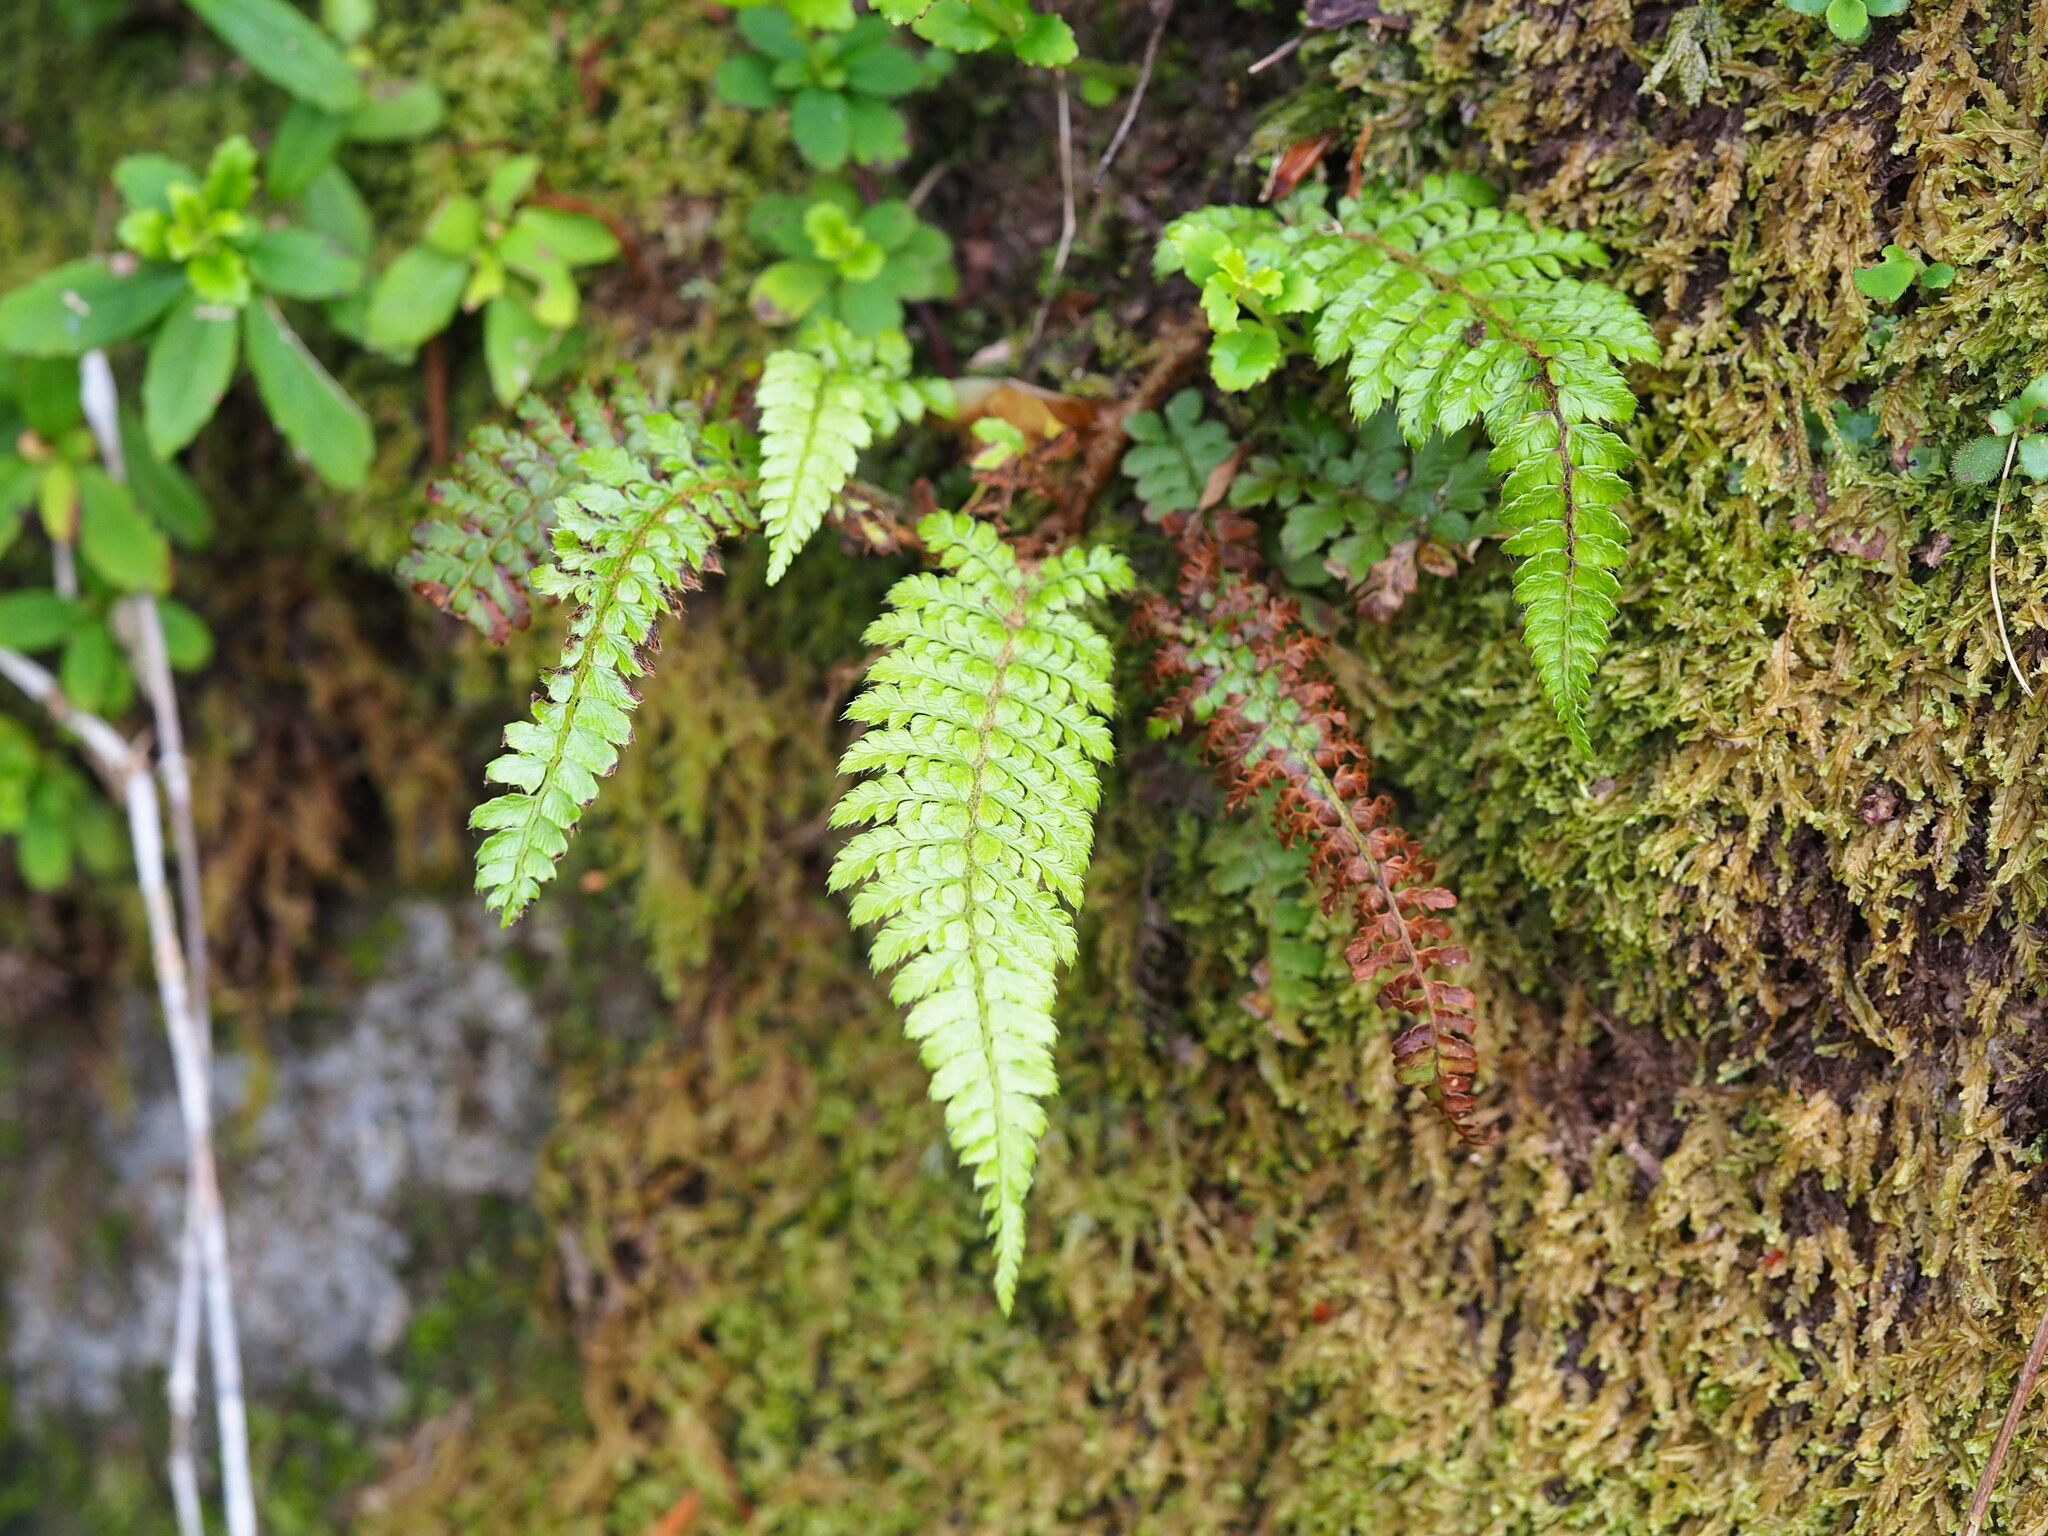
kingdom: Plantae
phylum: Tracheophyta
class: Polypodiopsida
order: Polypodiales
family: Dryopteridaceae
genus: Polystichum
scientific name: Polystichum parvipinnulum
